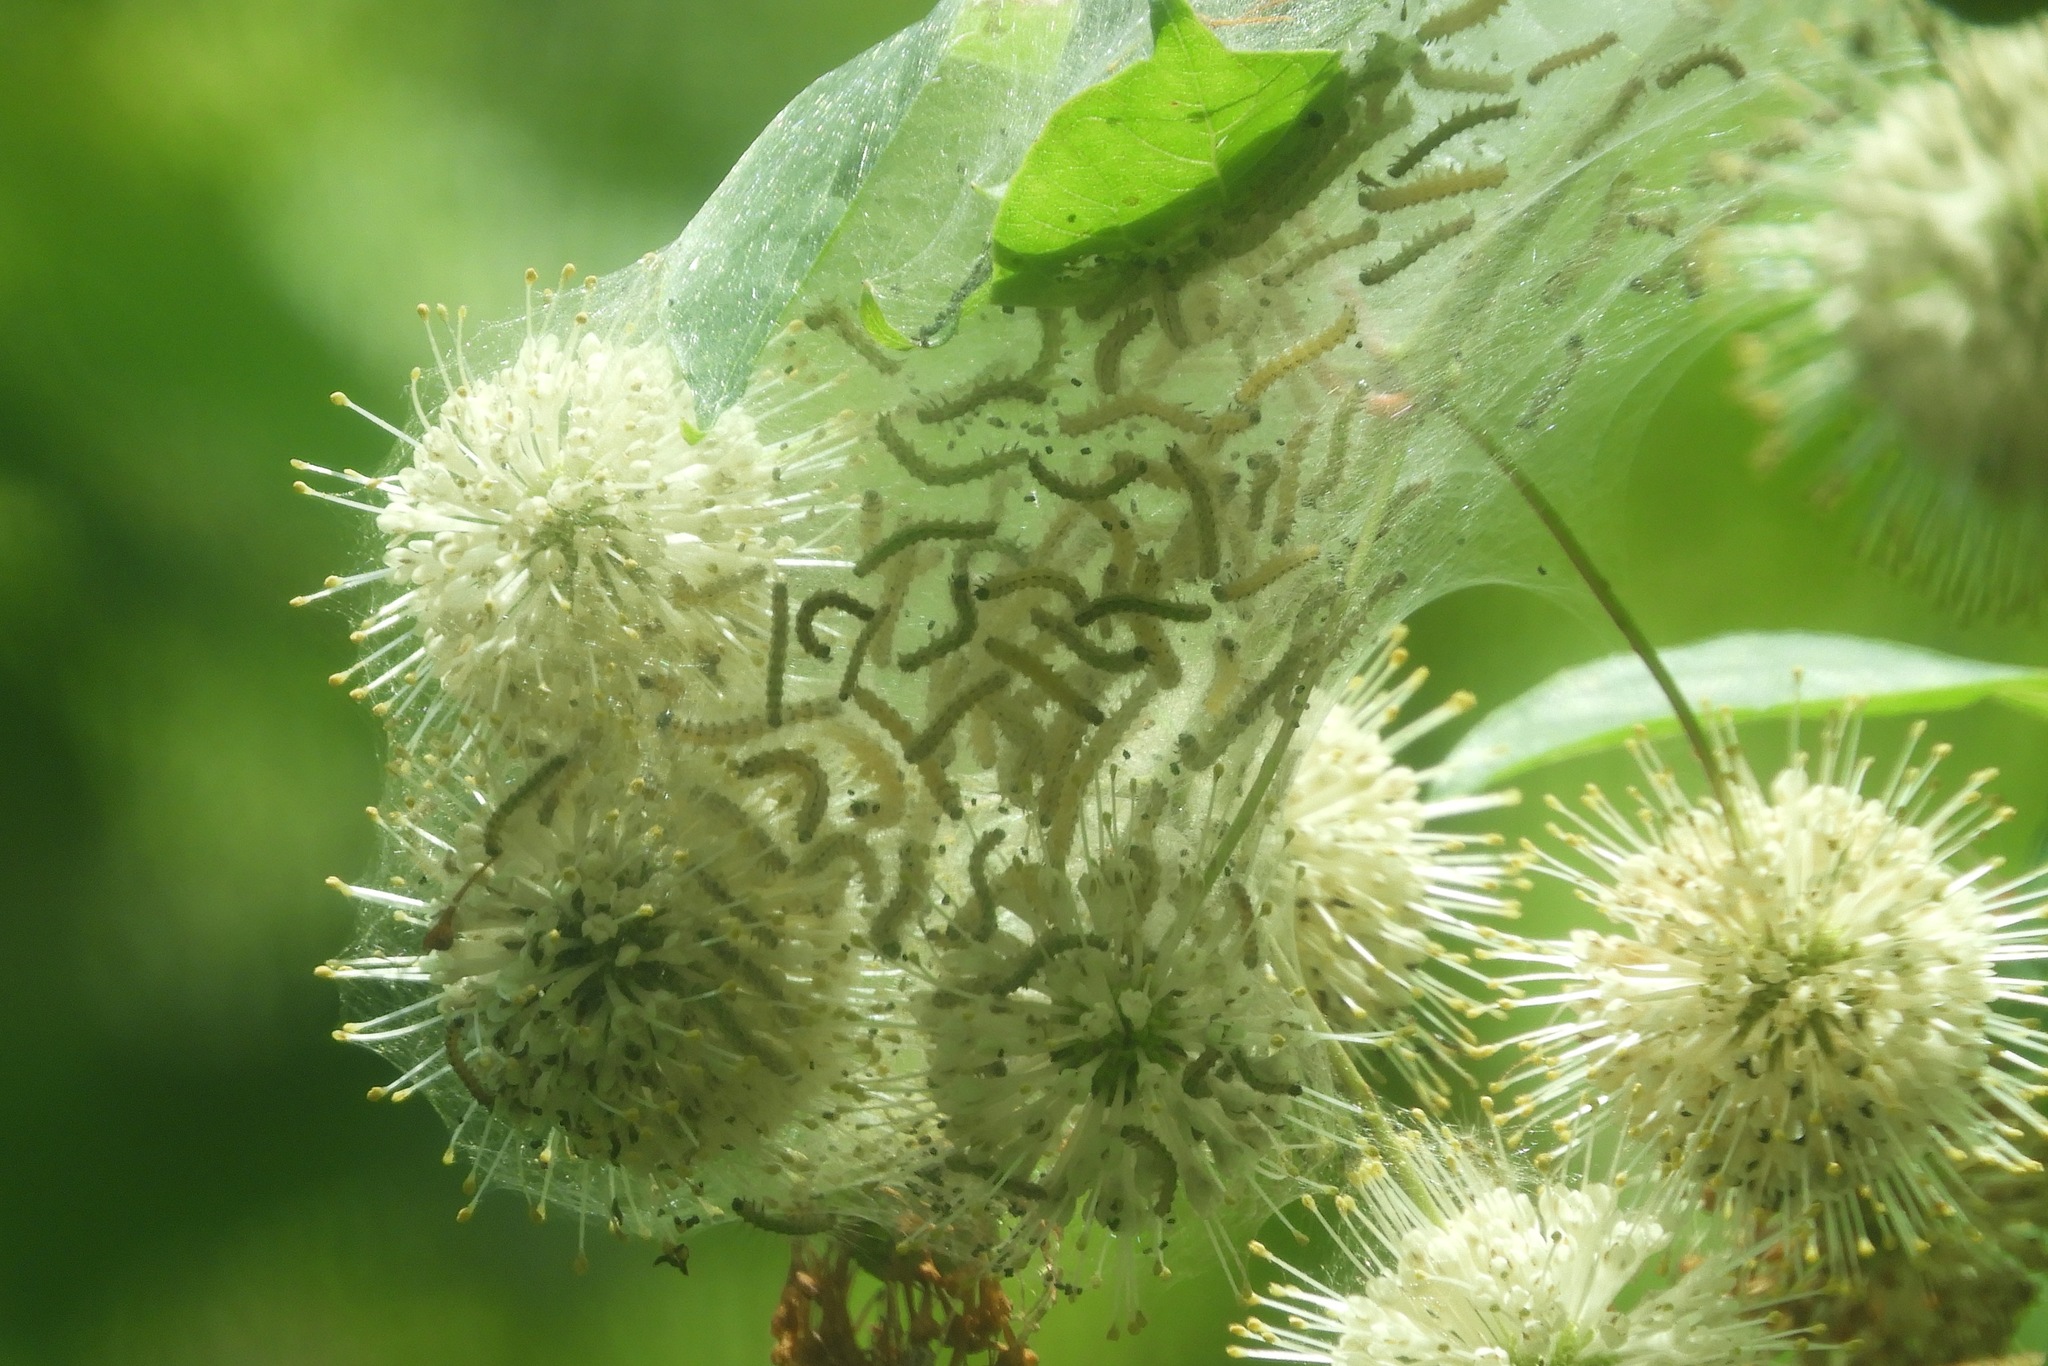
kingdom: Animalia
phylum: Arthropoda
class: Insecta
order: Lepidoptera
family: Erebidae
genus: Hyphantria
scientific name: Hyphantria cunea
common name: American white moth
